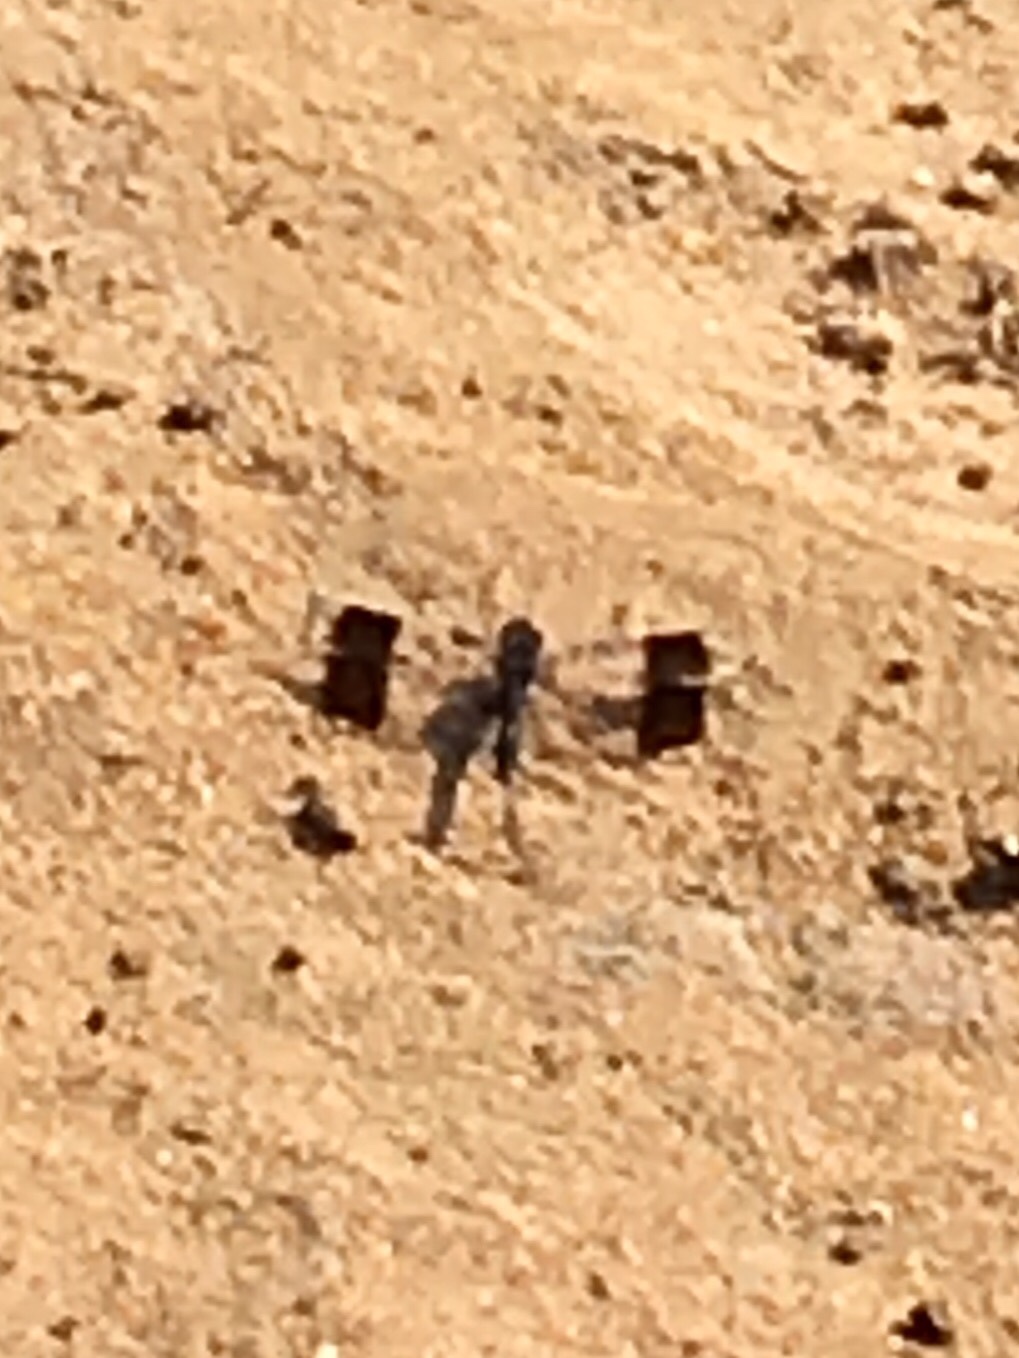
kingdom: Animalia
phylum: Arthropoda
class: Insecta
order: Odonata
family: Libellulidae
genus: Brachythemis
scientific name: Brachythemis leucosticta
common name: Banded groundling
